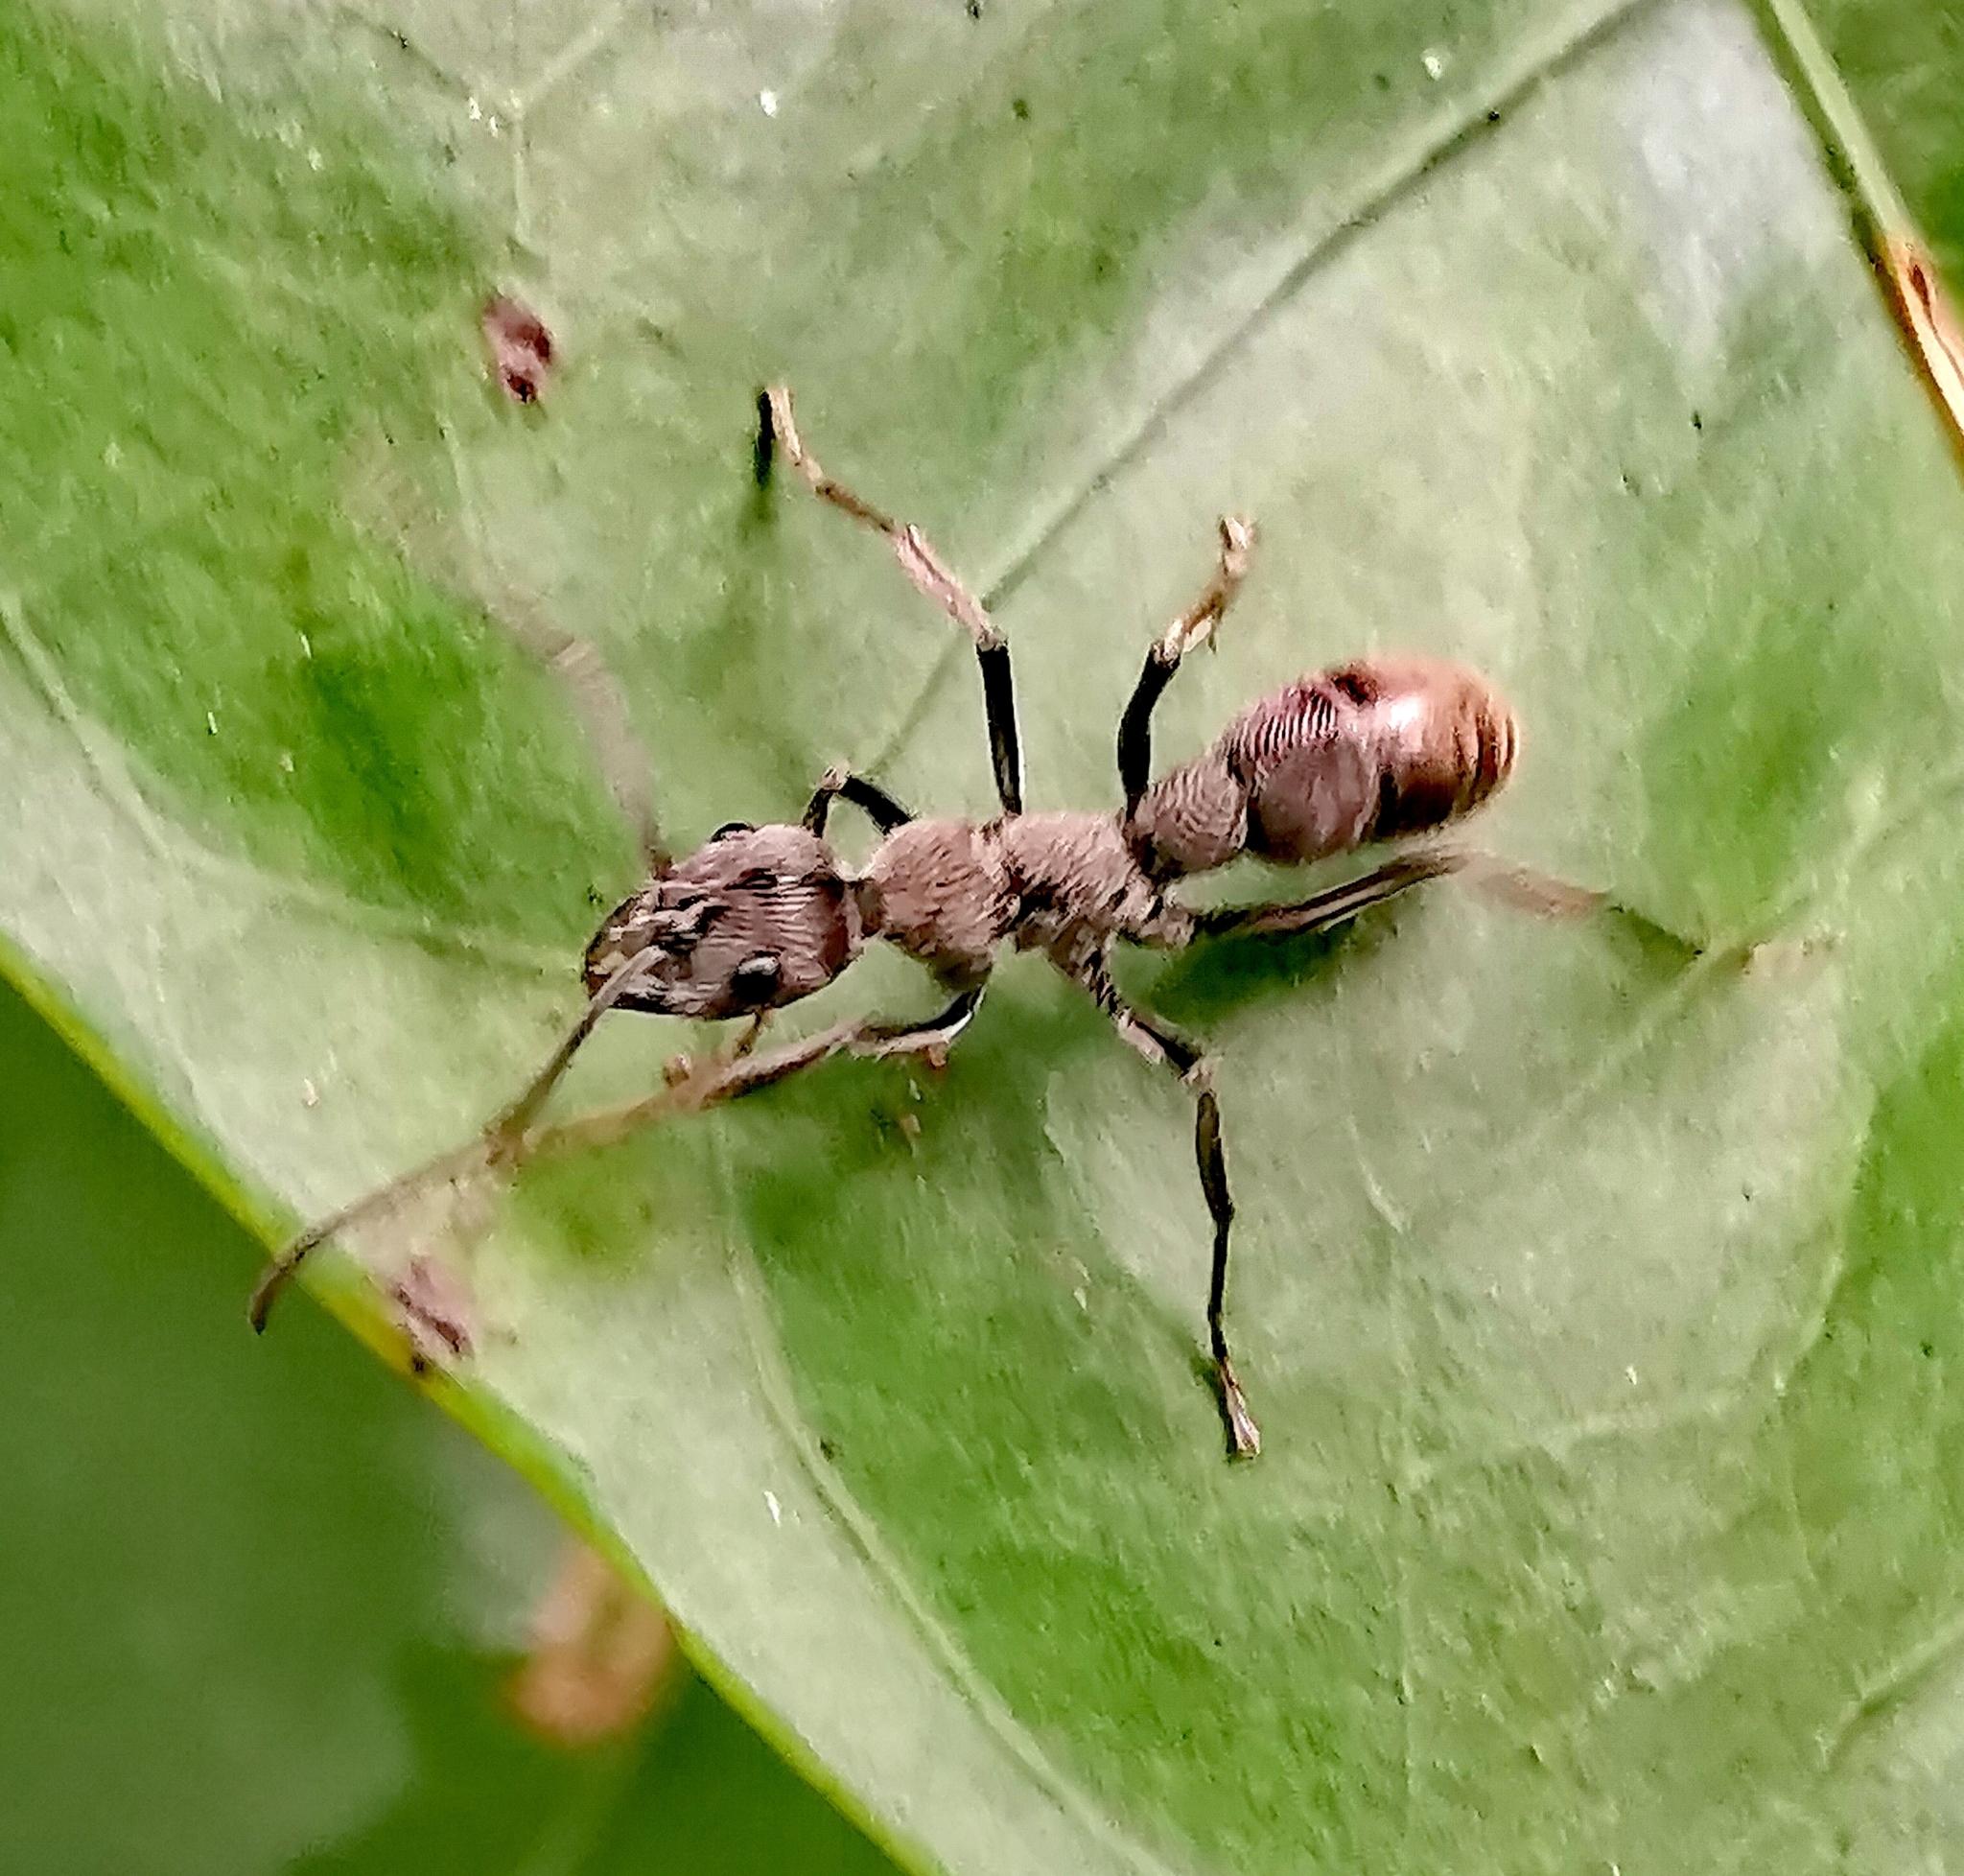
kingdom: Animalia
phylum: Arthropoda
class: Insecta
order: Hymenoptera
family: Formicidae
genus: Diacamma
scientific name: Diacamma rugosum
